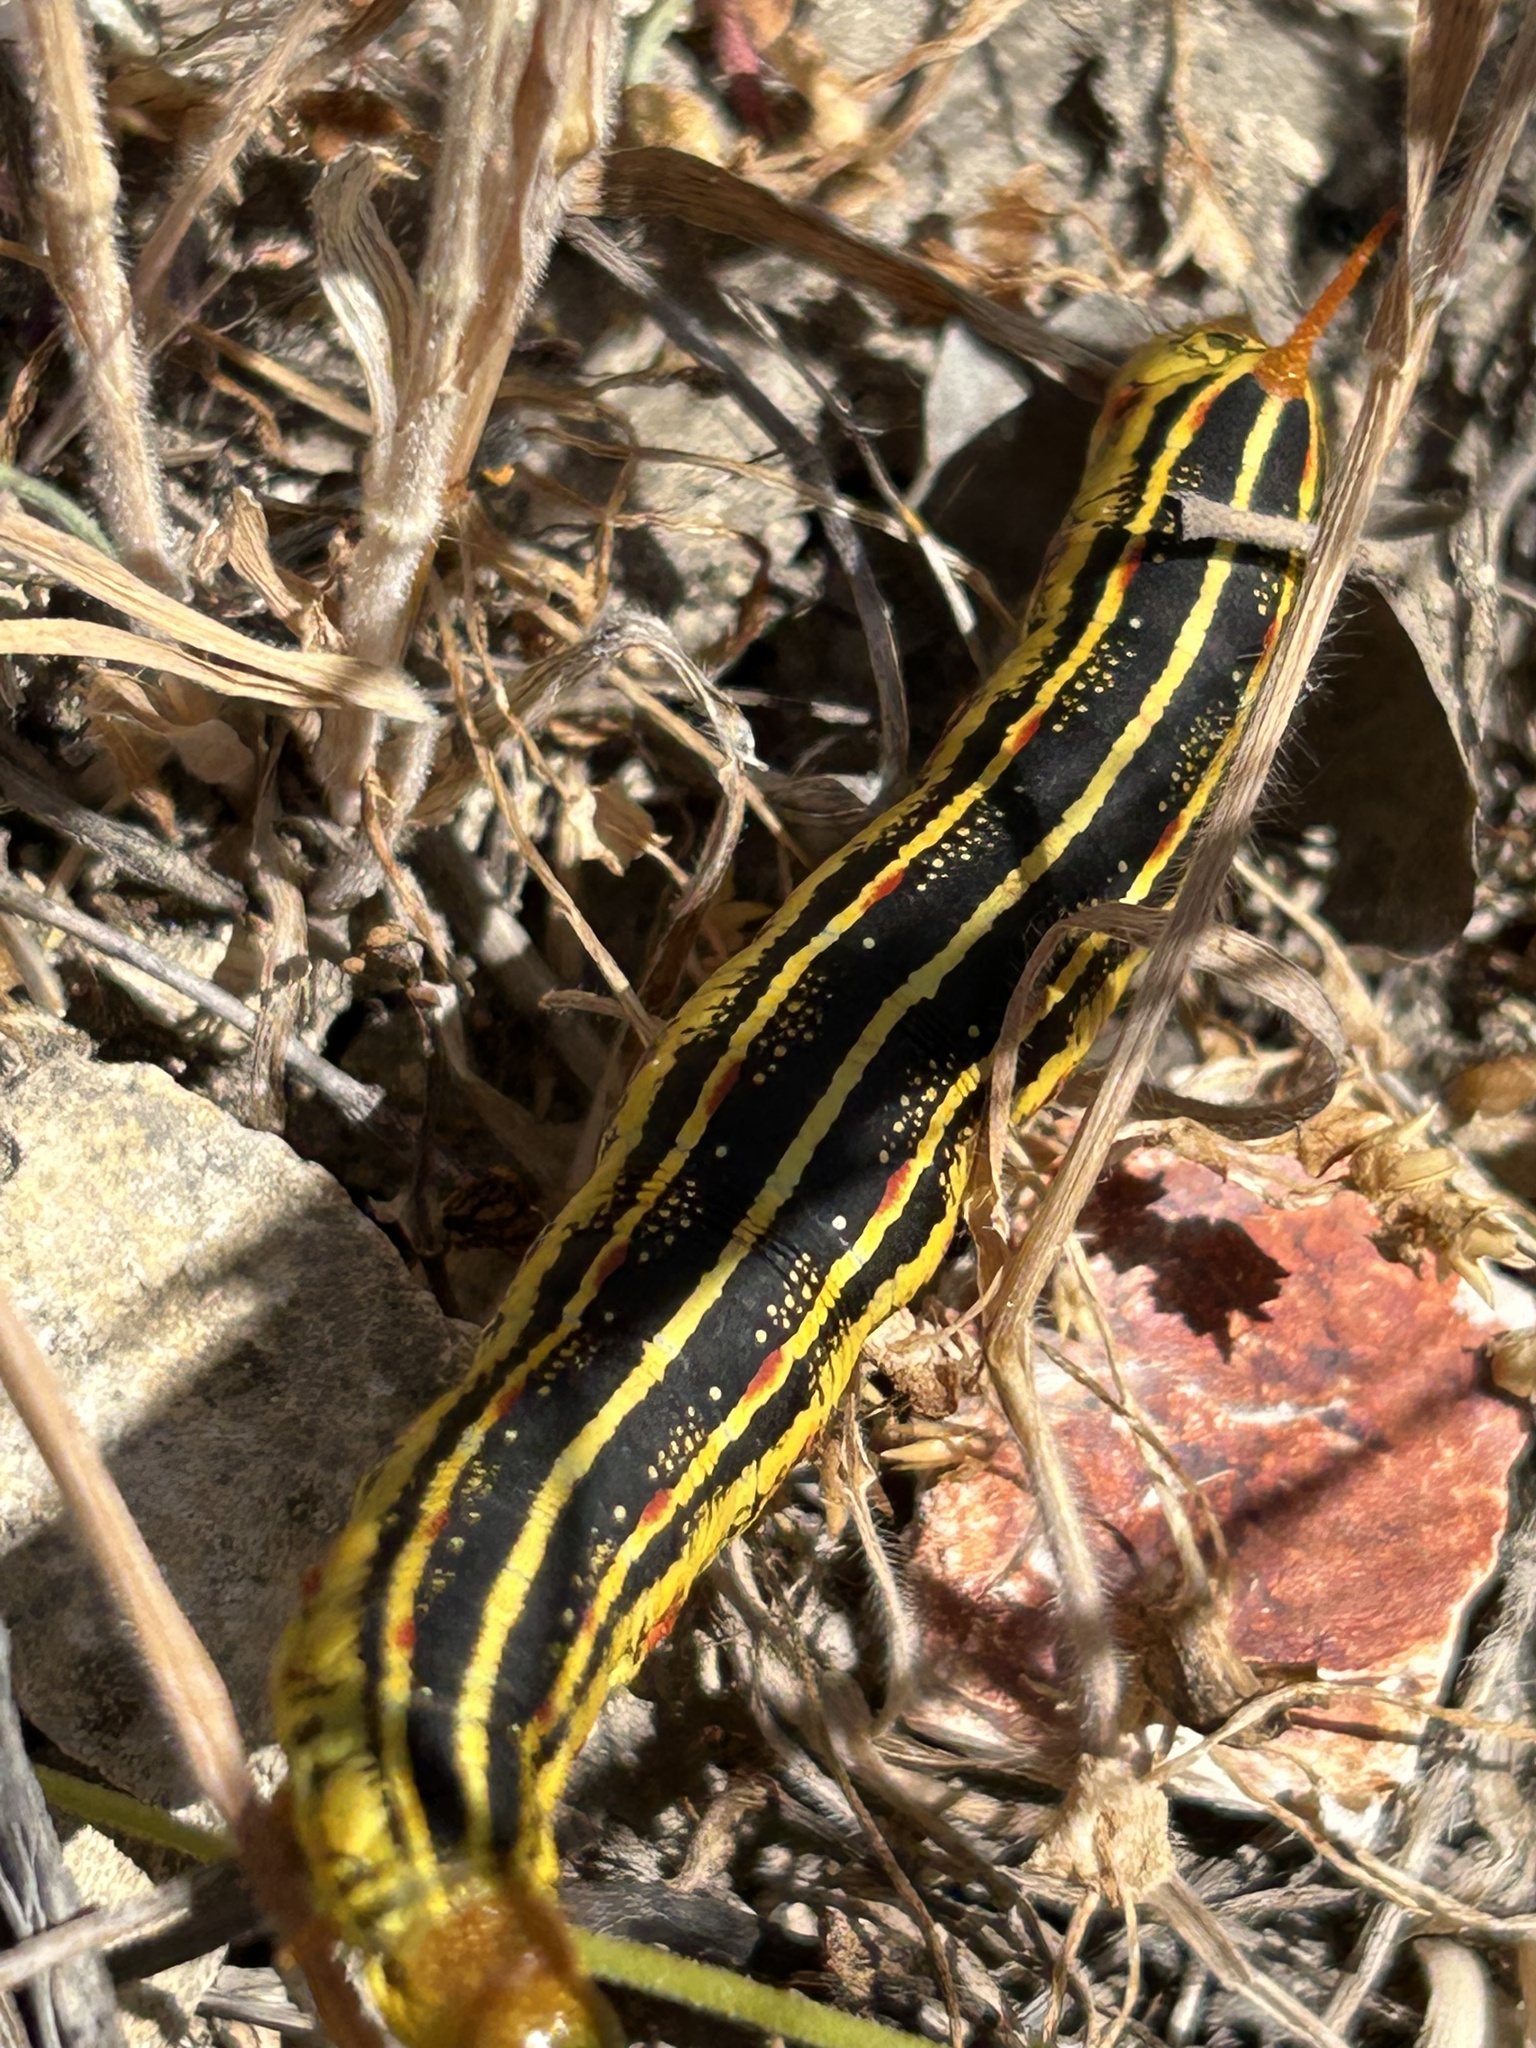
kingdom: Animalia
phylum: Arthropoda
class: Insecta
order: Lepidoptera
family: Sphingidae
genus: Hyles
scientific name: Hyles lineata
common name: White-lined sphinx
